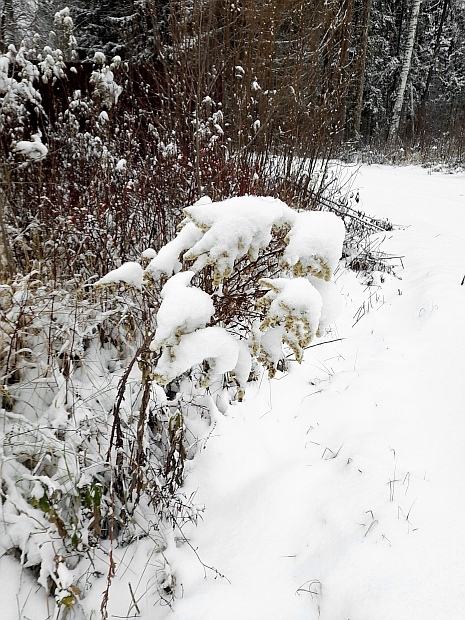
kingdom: Plantae
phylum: Tracheophyta
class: Magnoliopsida
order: Asterales
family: Asteraceae
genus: Solidago
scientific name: Solidago gigantea
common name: Giant goldenrod
